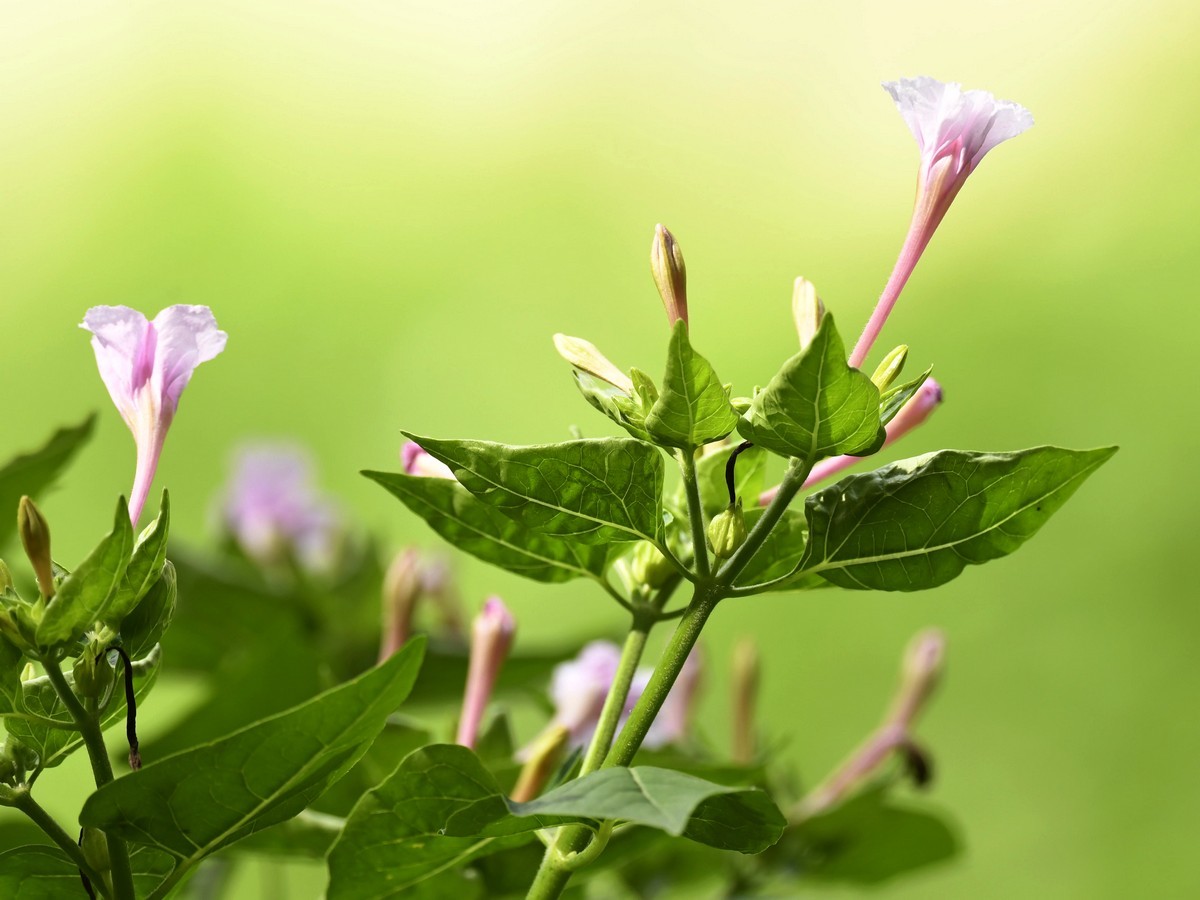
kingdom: Plantae
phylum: Tracheophyta
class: Magnoliopsida
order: Caryophyllales
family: Nyctaginaceae
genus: Mirabilis
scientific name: Mirabilis jalapa
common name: Marvel-of-peru
